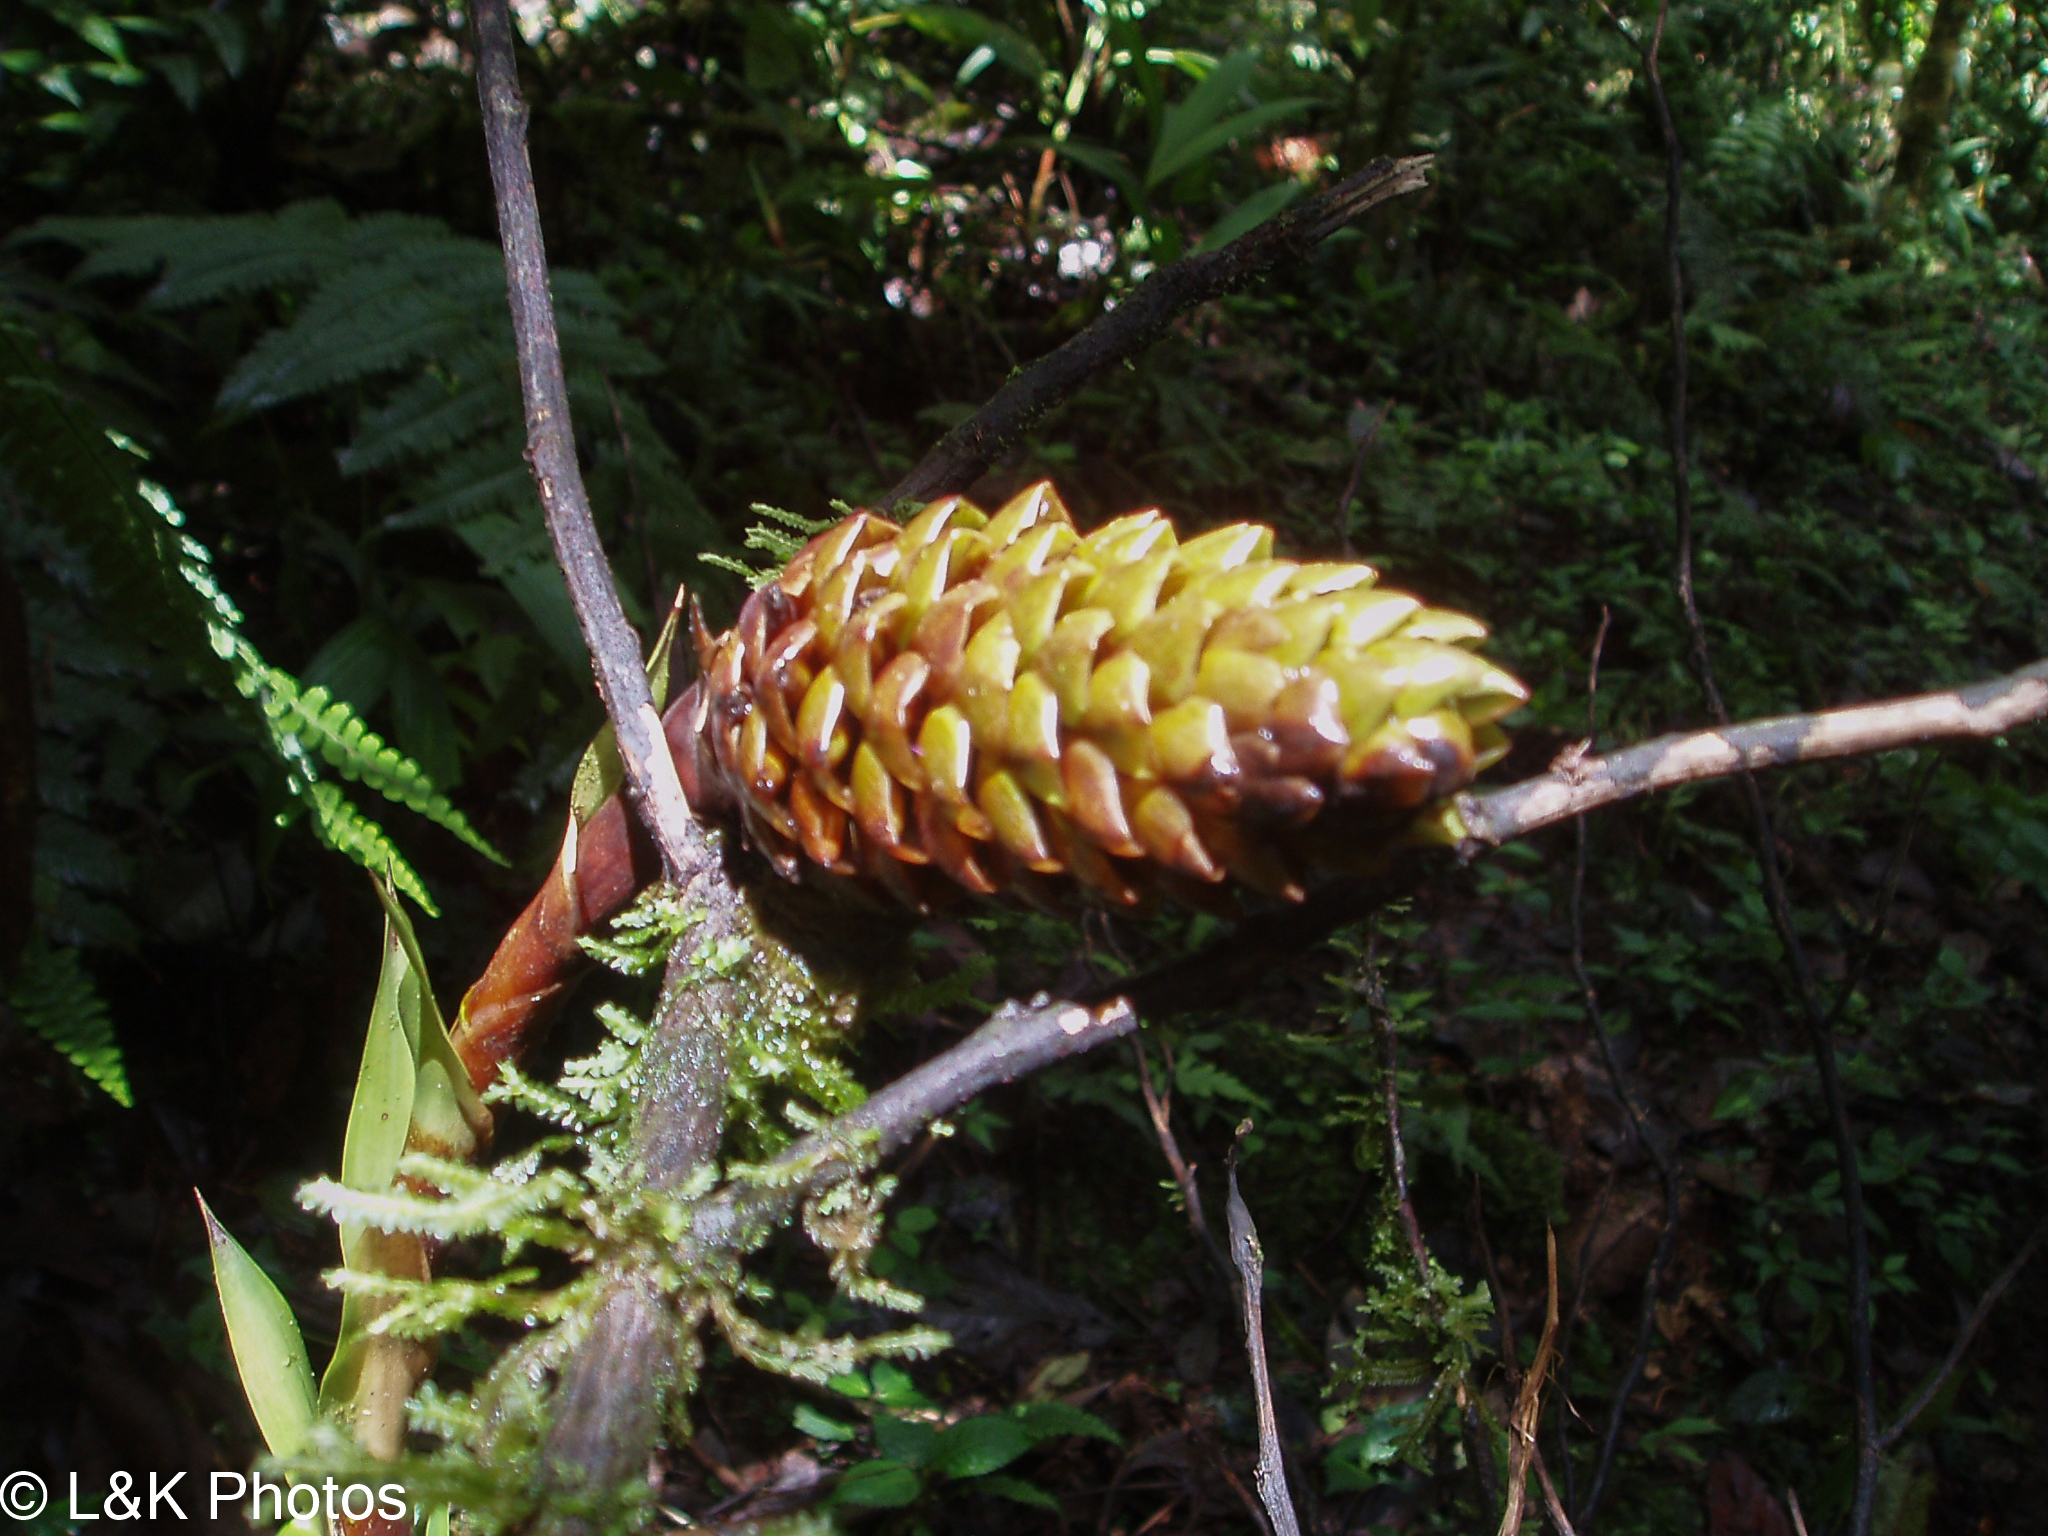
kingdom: Plantae
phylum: Tracheophyta
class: Liliopsida
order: Poales
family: Bromeliaceae
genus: Guzmania
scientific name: Guzmania triangularis
